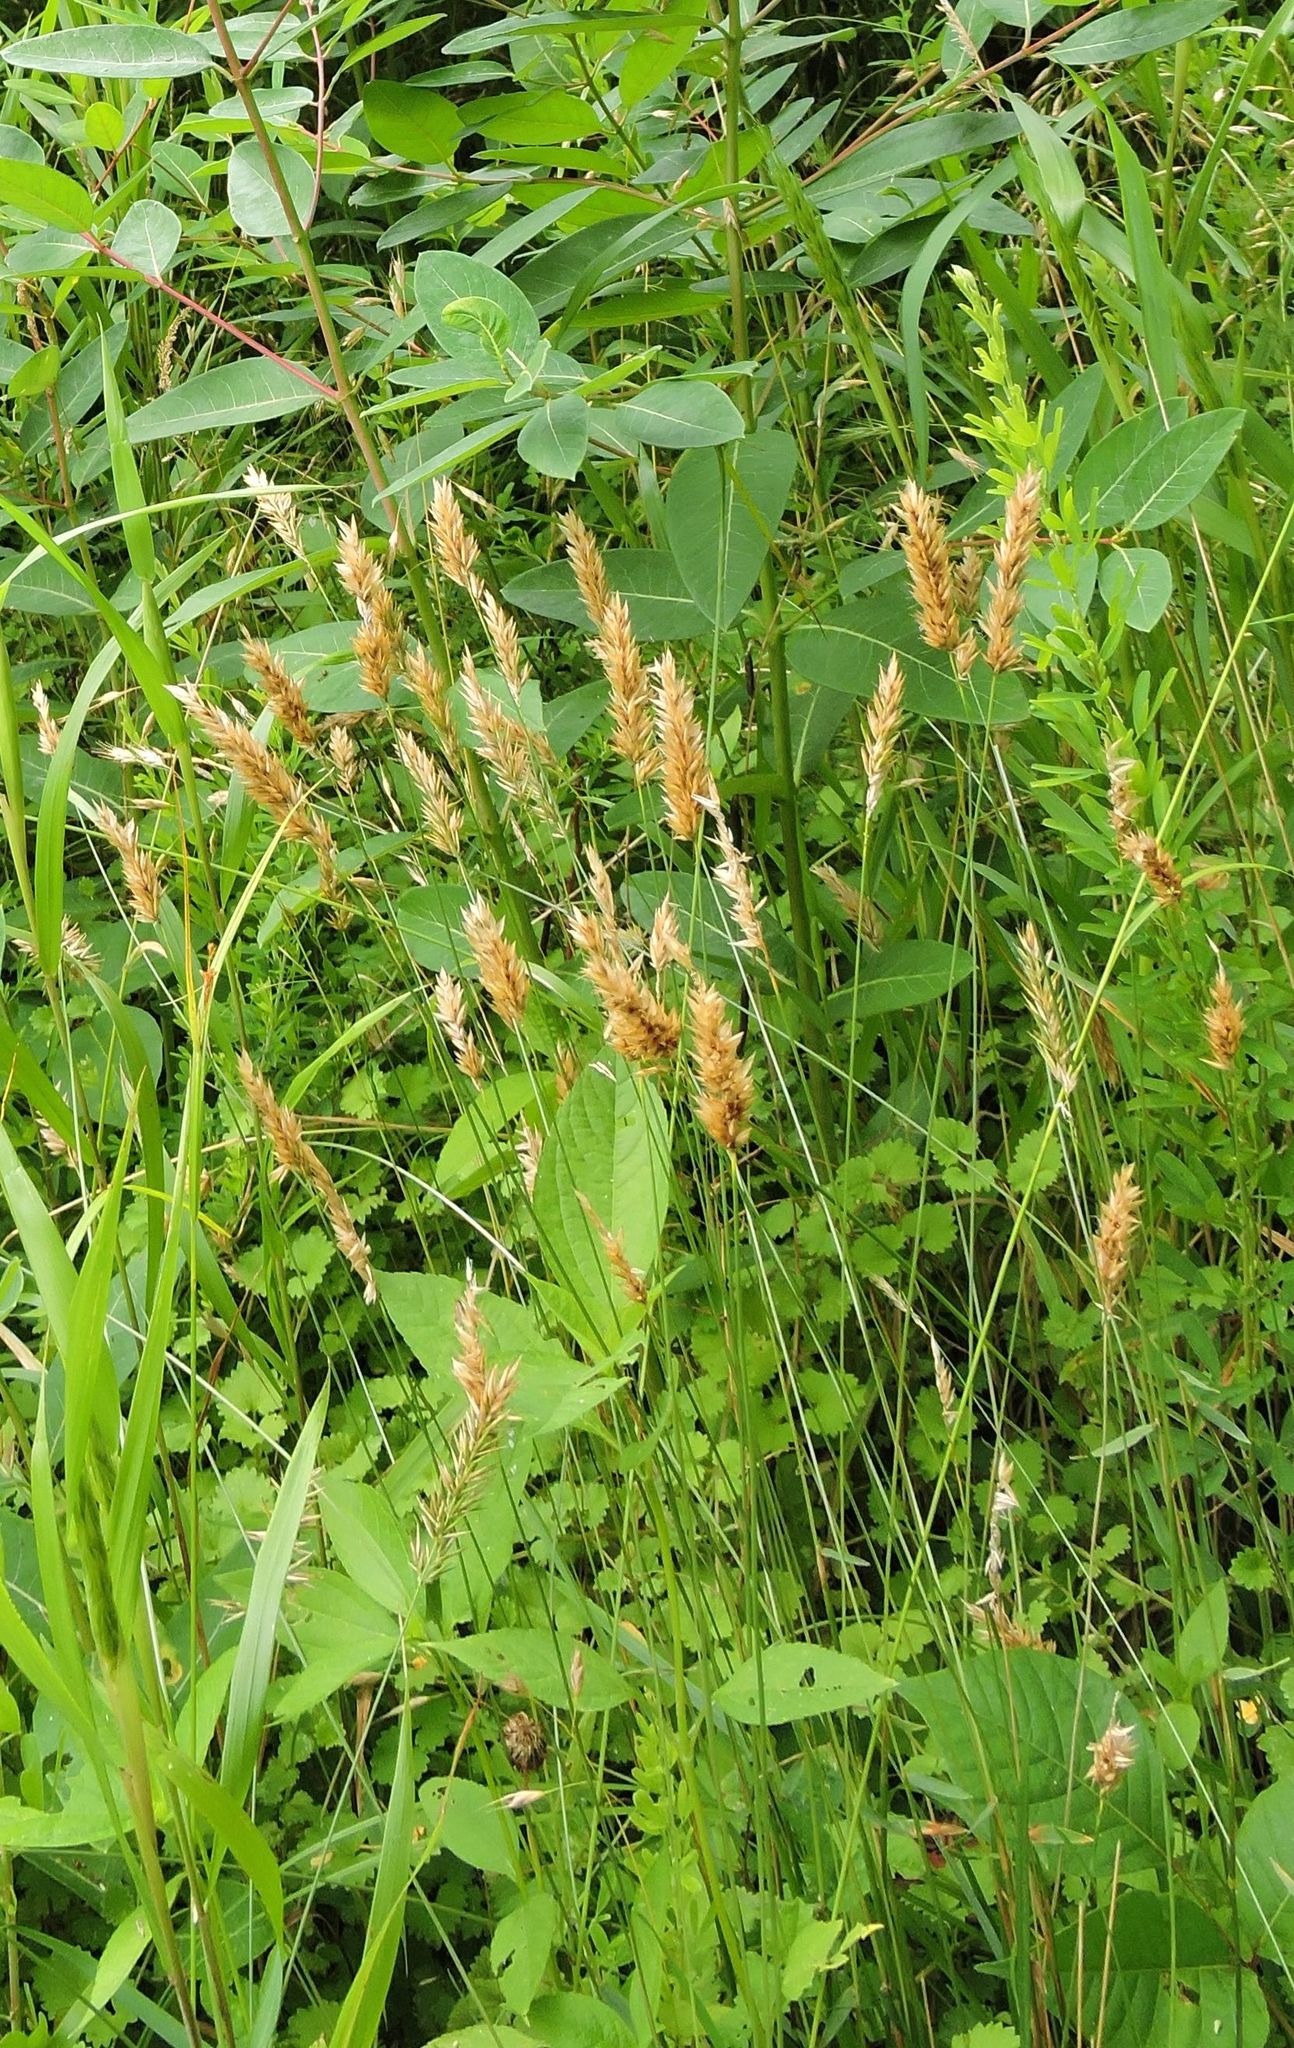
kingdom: Plantae
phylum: Tracheophyta
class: Liliopsida
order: Poales
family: Poaceae
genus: Anthoxanthum
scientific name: Anthoxanthum odoratum
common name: Sweet vernalgrass
